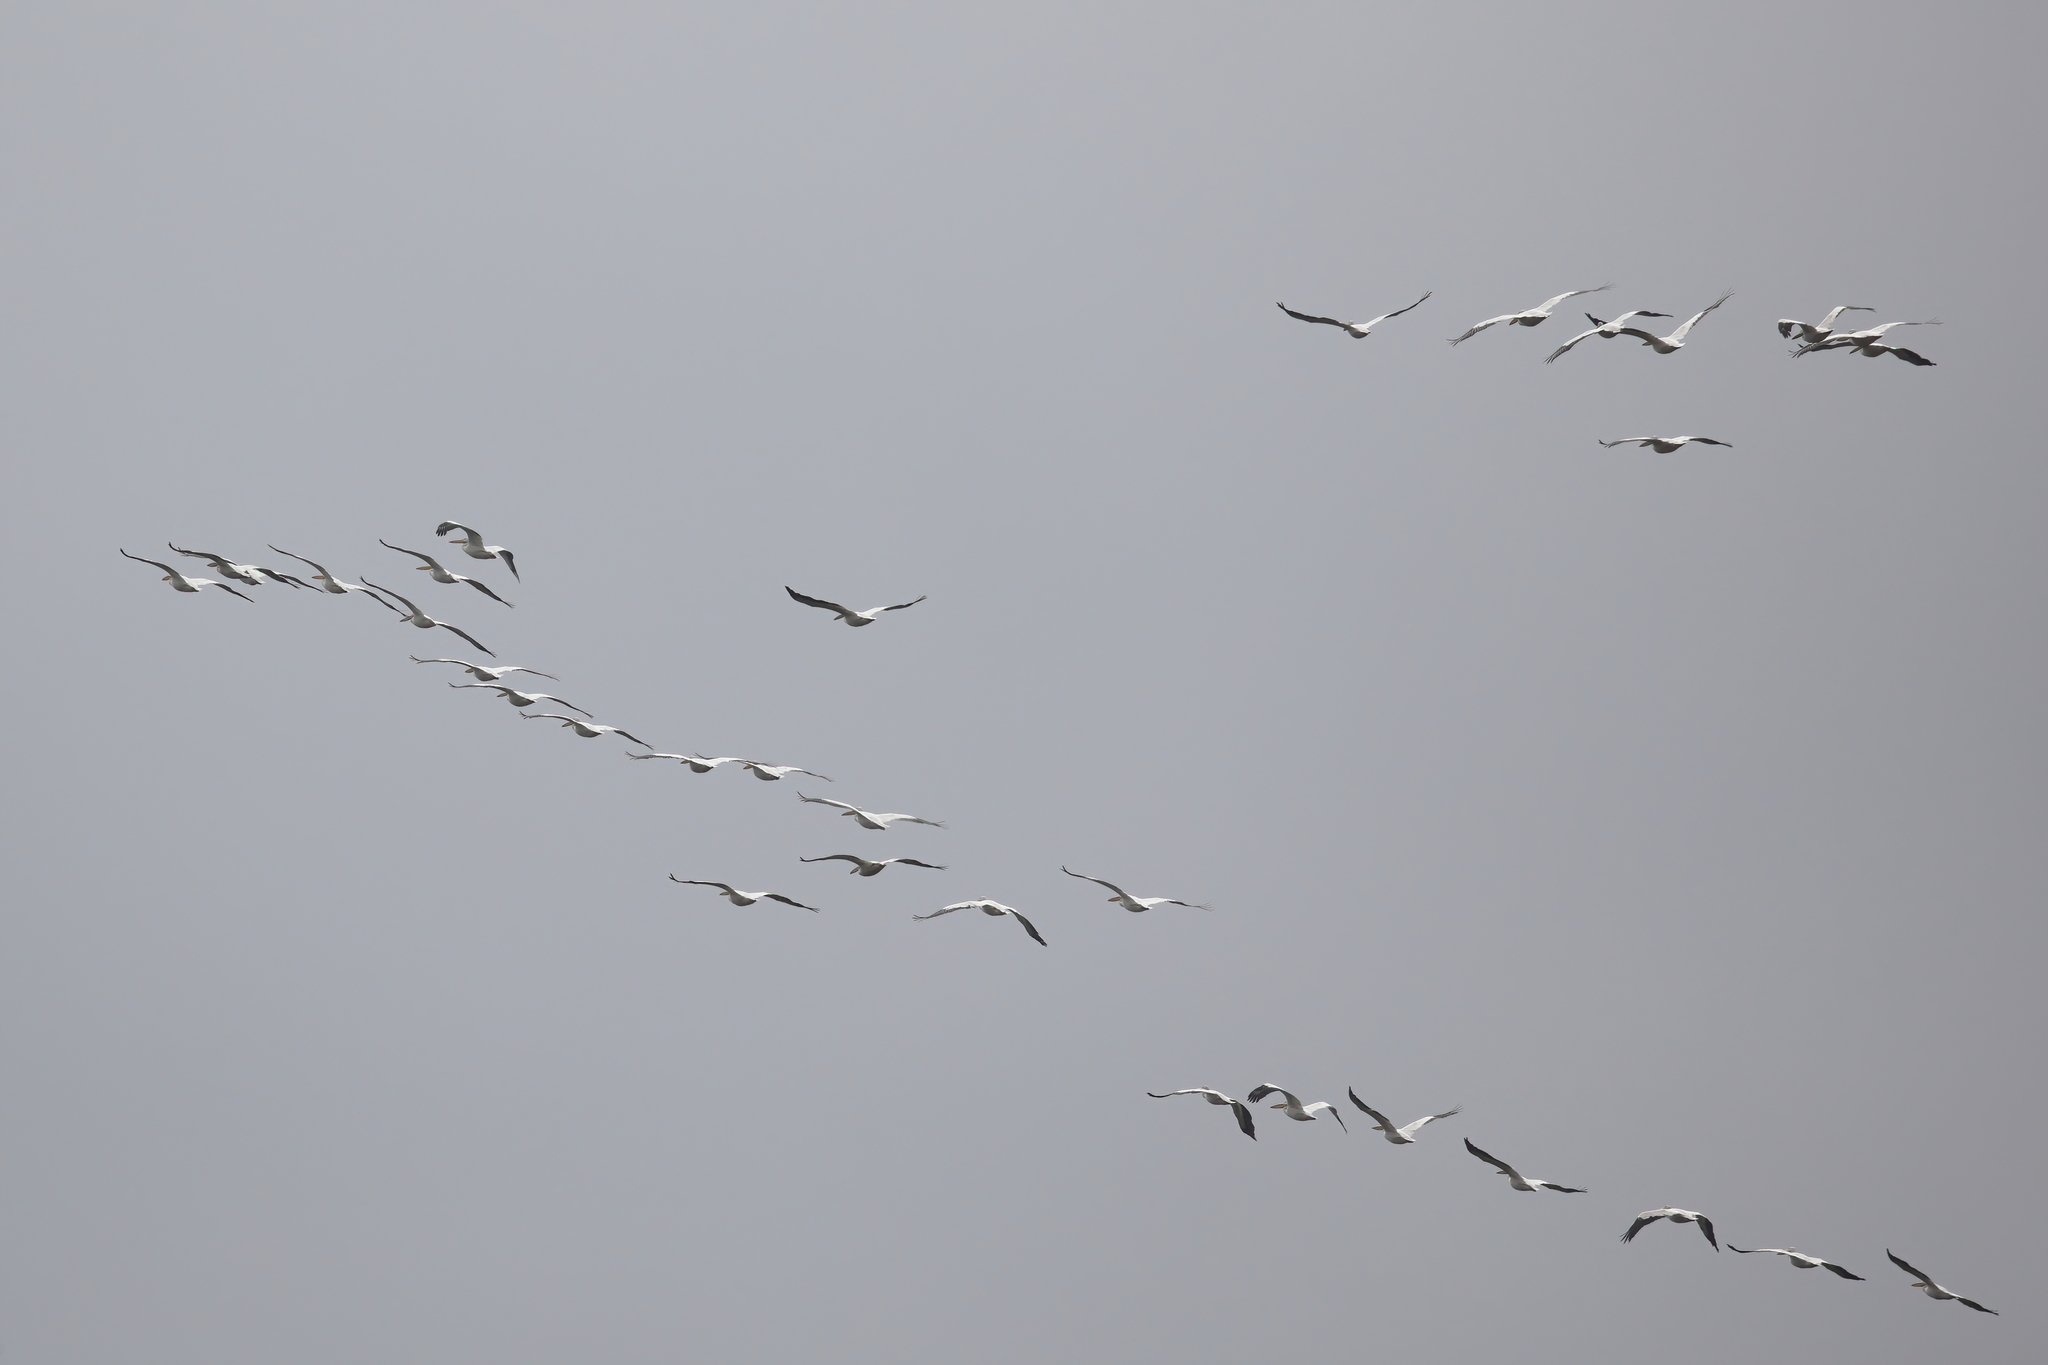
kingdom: Animalia
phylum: Chordata
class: Aves
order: Pelecaniformes
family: Pelecanidae
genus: Pelecanus
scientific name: Pelecanus erythrorhynchos
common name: American white pelican
